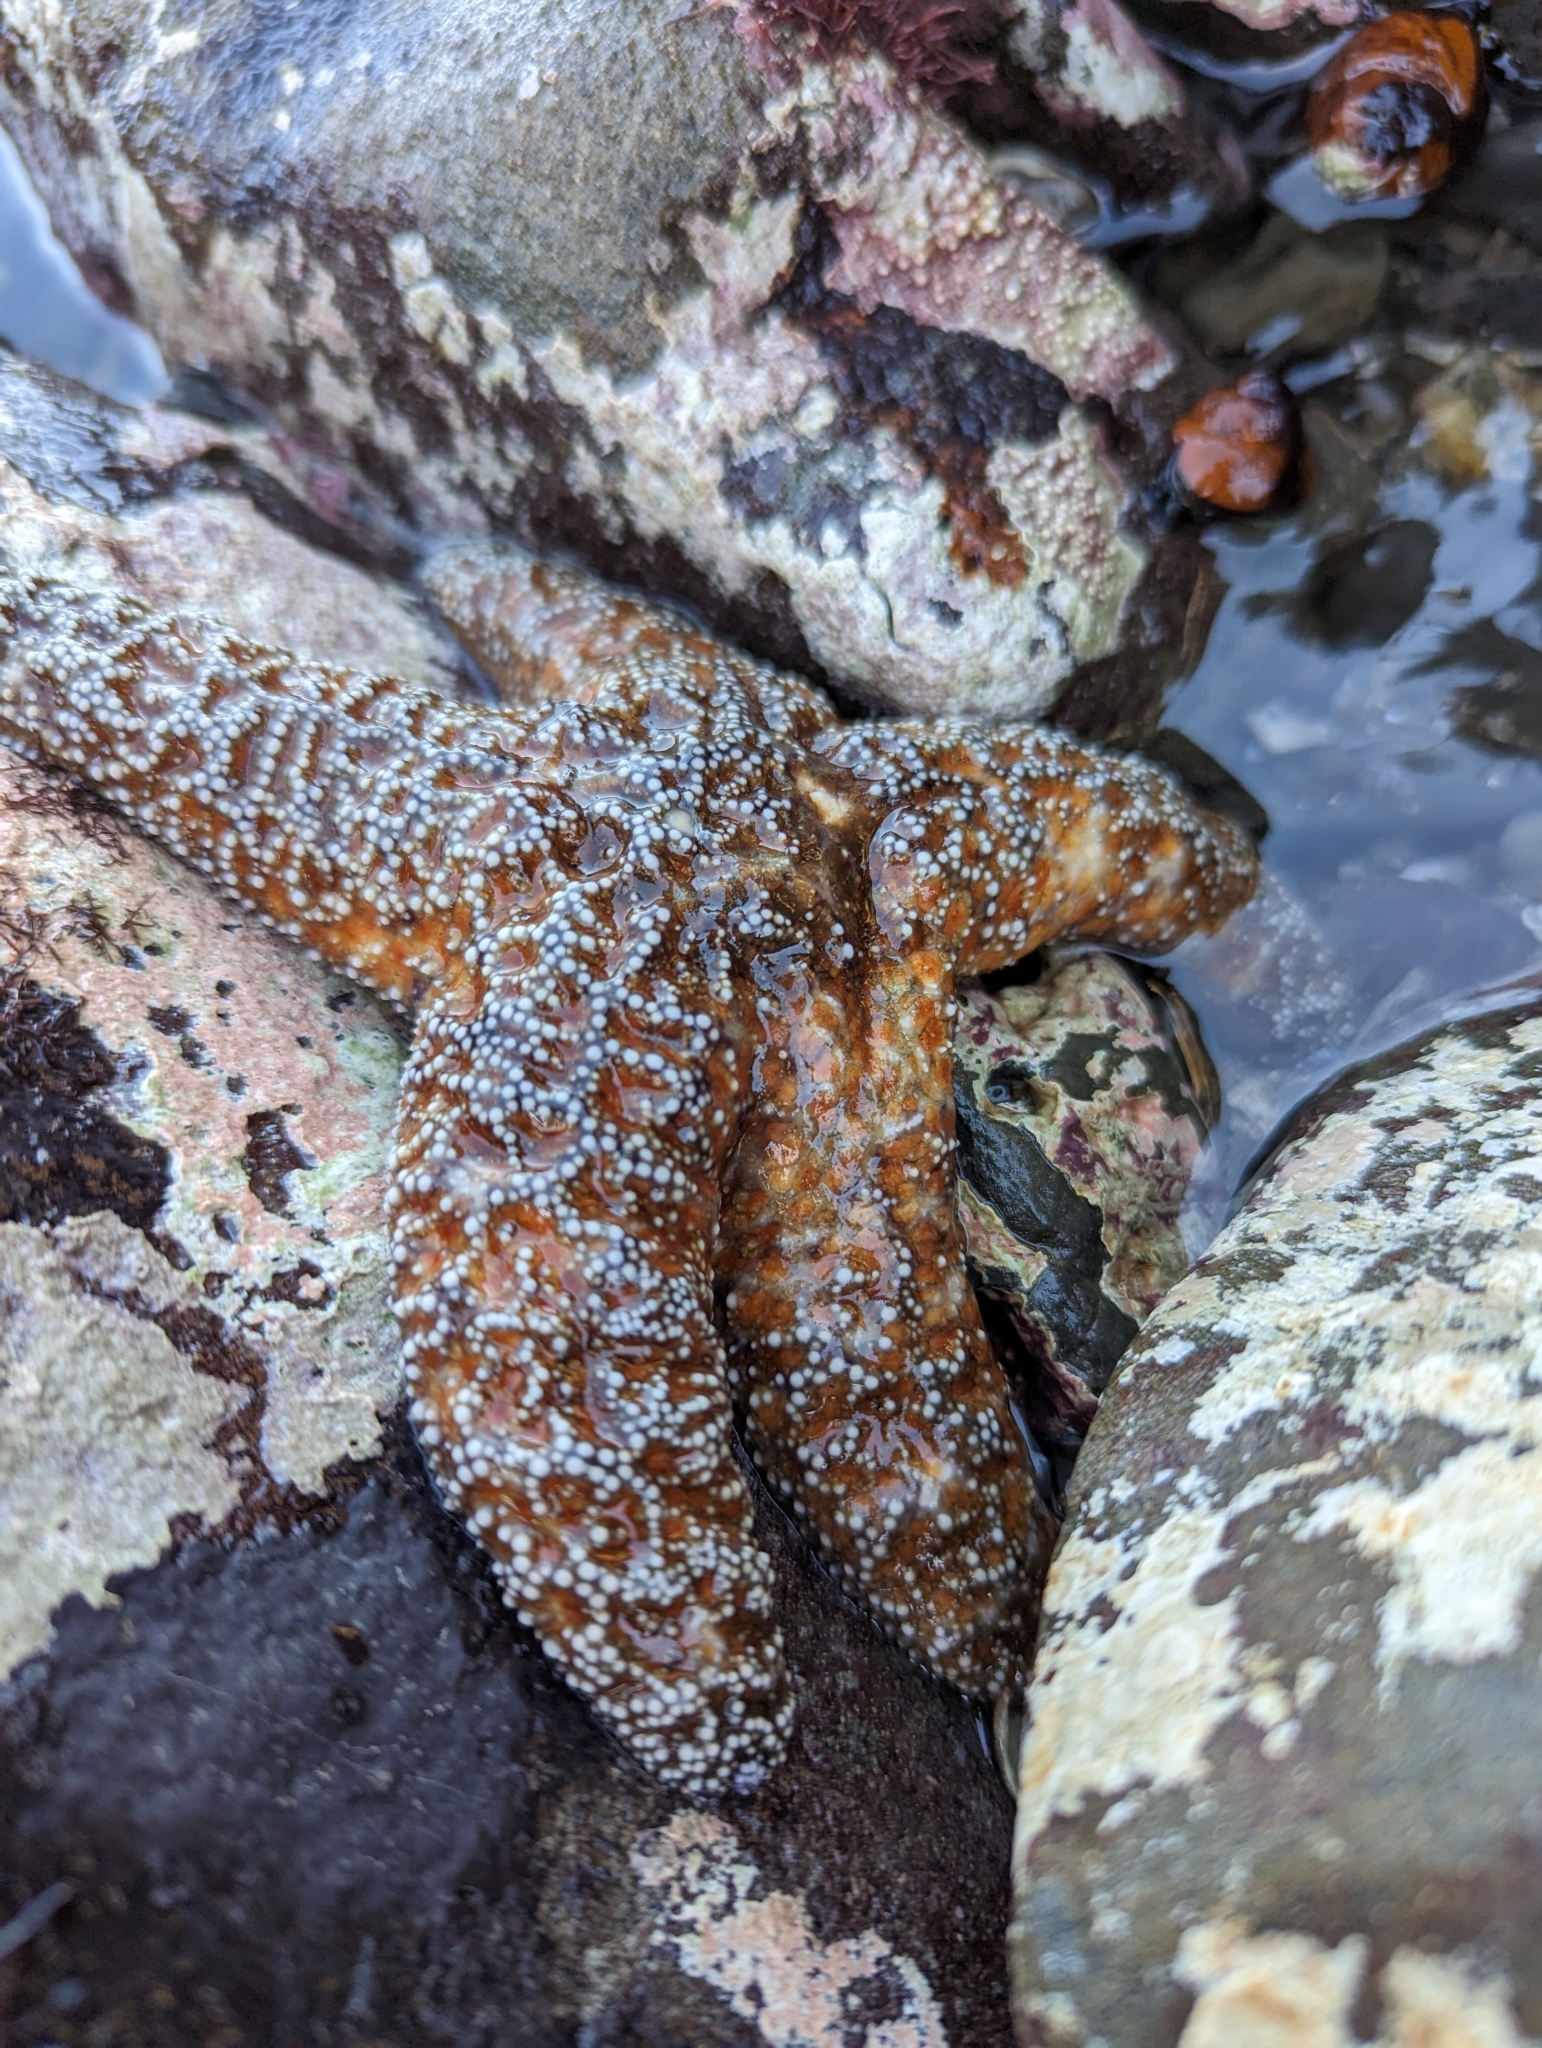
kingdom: Animalia
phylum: Echinodermata
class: Asteroidea
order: Forcipulatida
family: Asteriidae
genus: Pisaster
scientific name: Pisaster ochraceus
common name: Ochre stars
